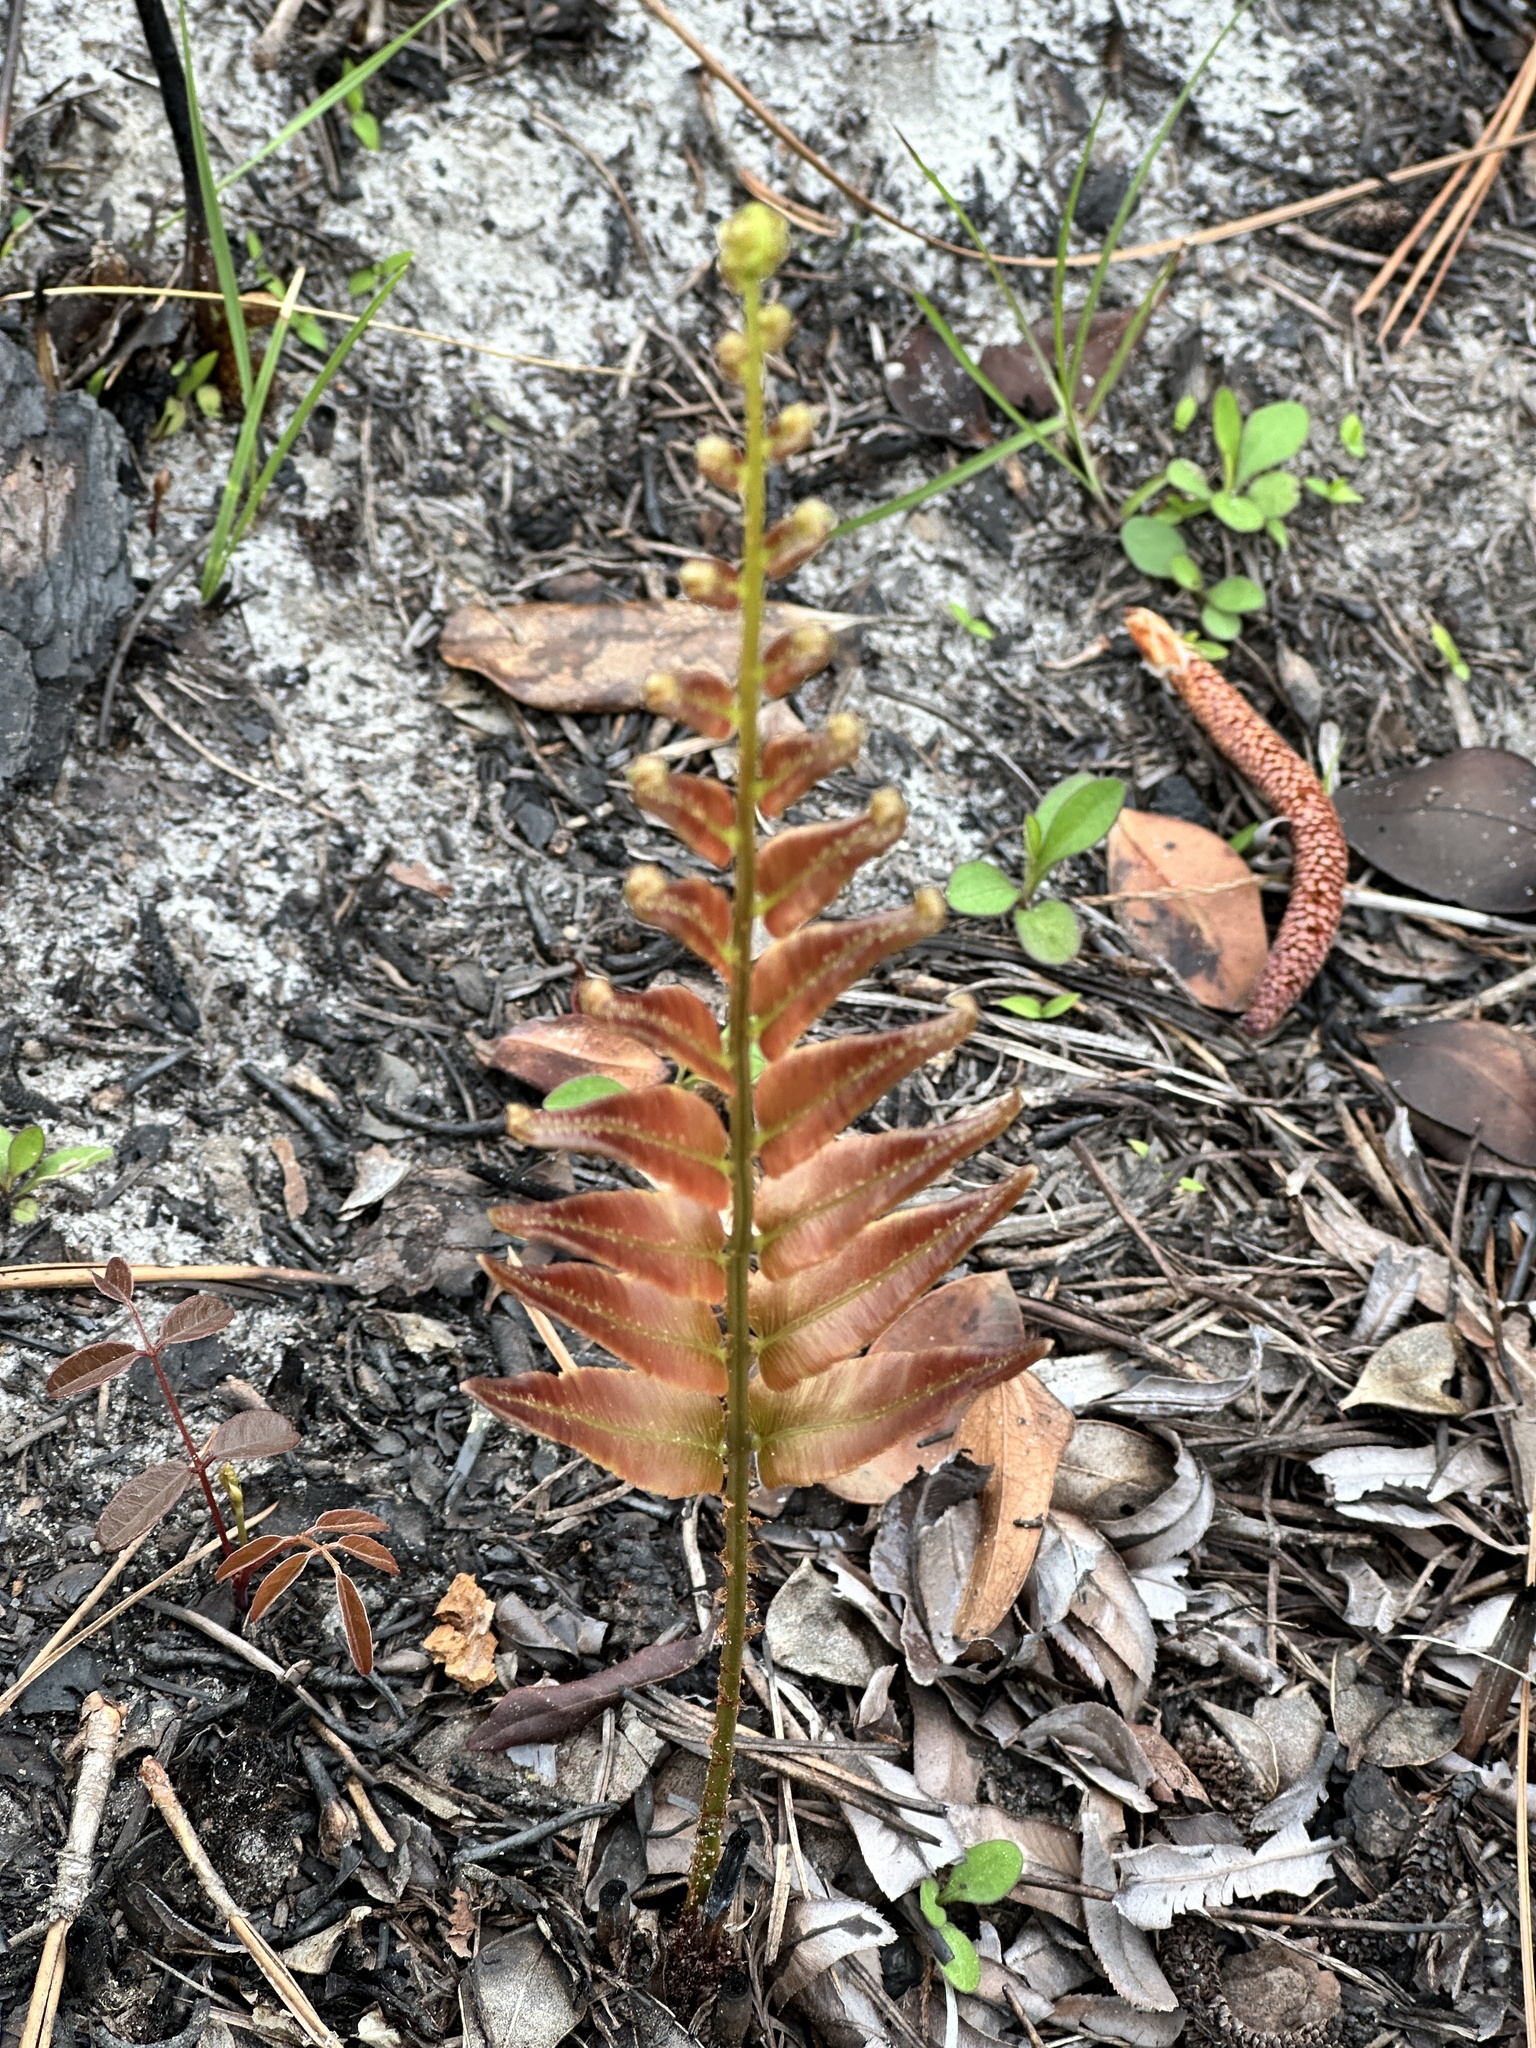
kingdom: Plantae
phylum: Tracheophyta
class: Polypodiopsida
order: Polypodiales
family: Blechnaceae
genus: Telmatoblechnum
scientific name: Telmatoblechnum serrulatum
